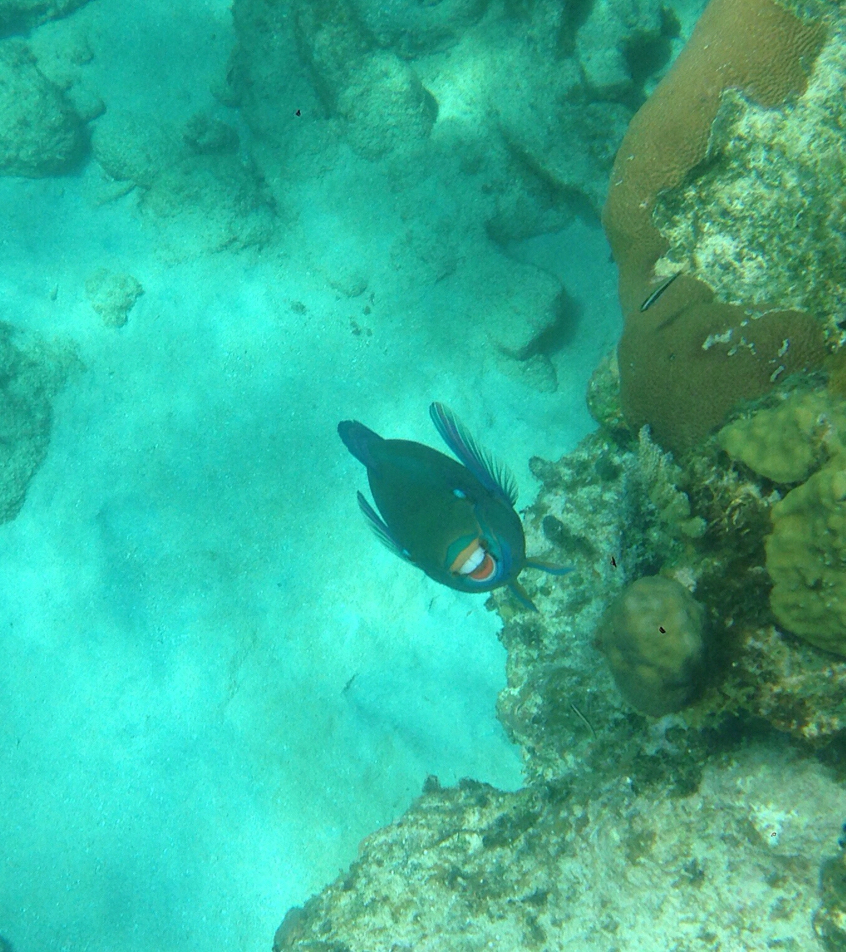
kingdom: Animalia
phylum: Chordata
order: Perciformes
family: Scaridae
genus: Scarus
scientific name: Scarus vetula
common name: Queen parrotfish
